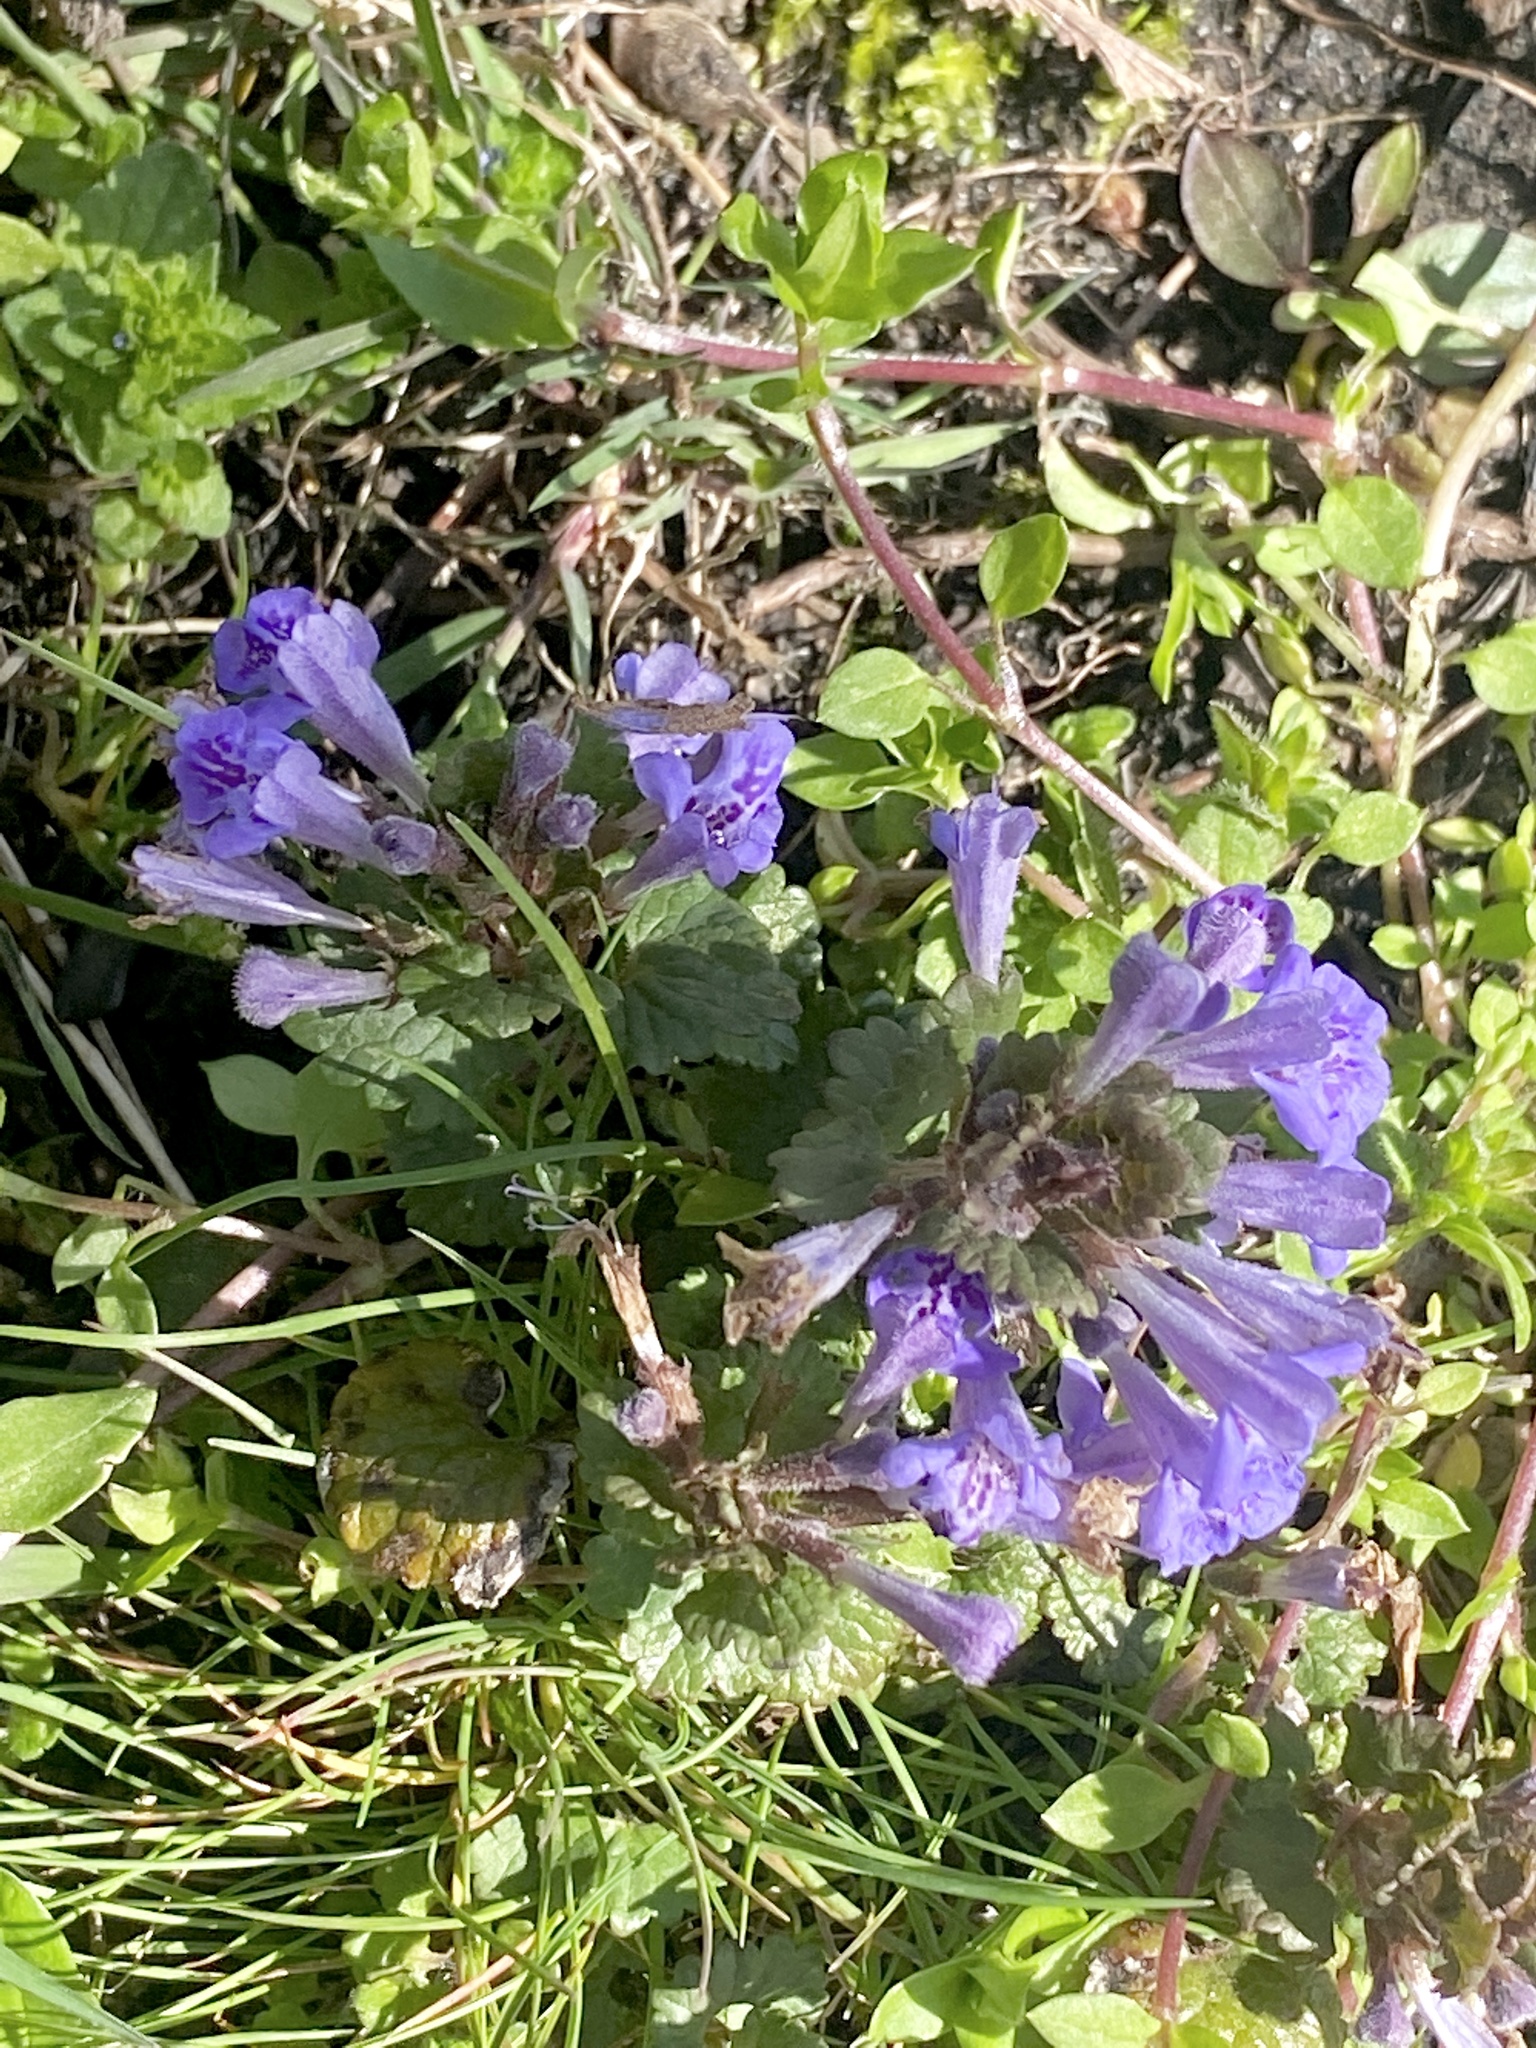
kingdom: Plantae
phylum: Tracheophyta
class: Magnoliopsida
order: Lamiales
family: Lamiaceae
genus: Glechoma
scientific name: Glechoma hederacea
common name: Ground ivy
